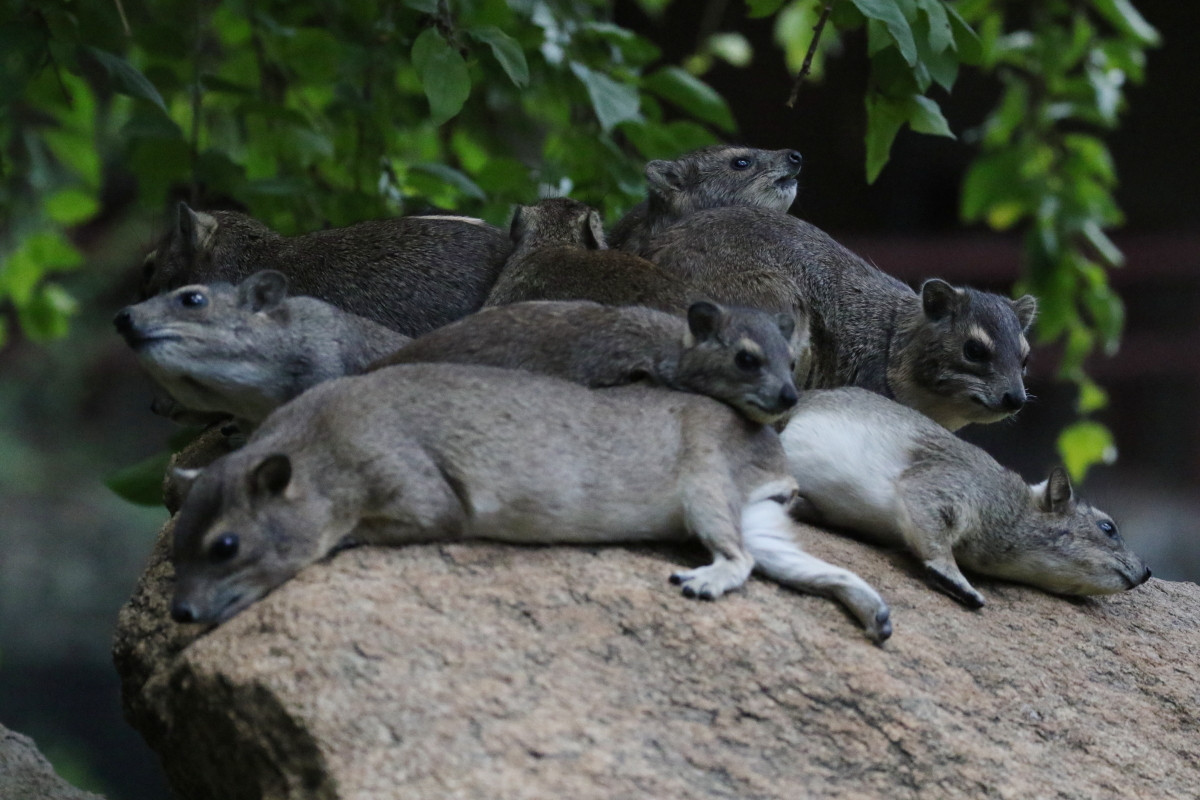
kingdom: Animalia
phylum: Chordata
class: Mammalia
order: Hyracoidea
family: Procaviidae
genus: Heterohyrax
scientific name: Heterohyrax brucei
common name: Bush hyrax
